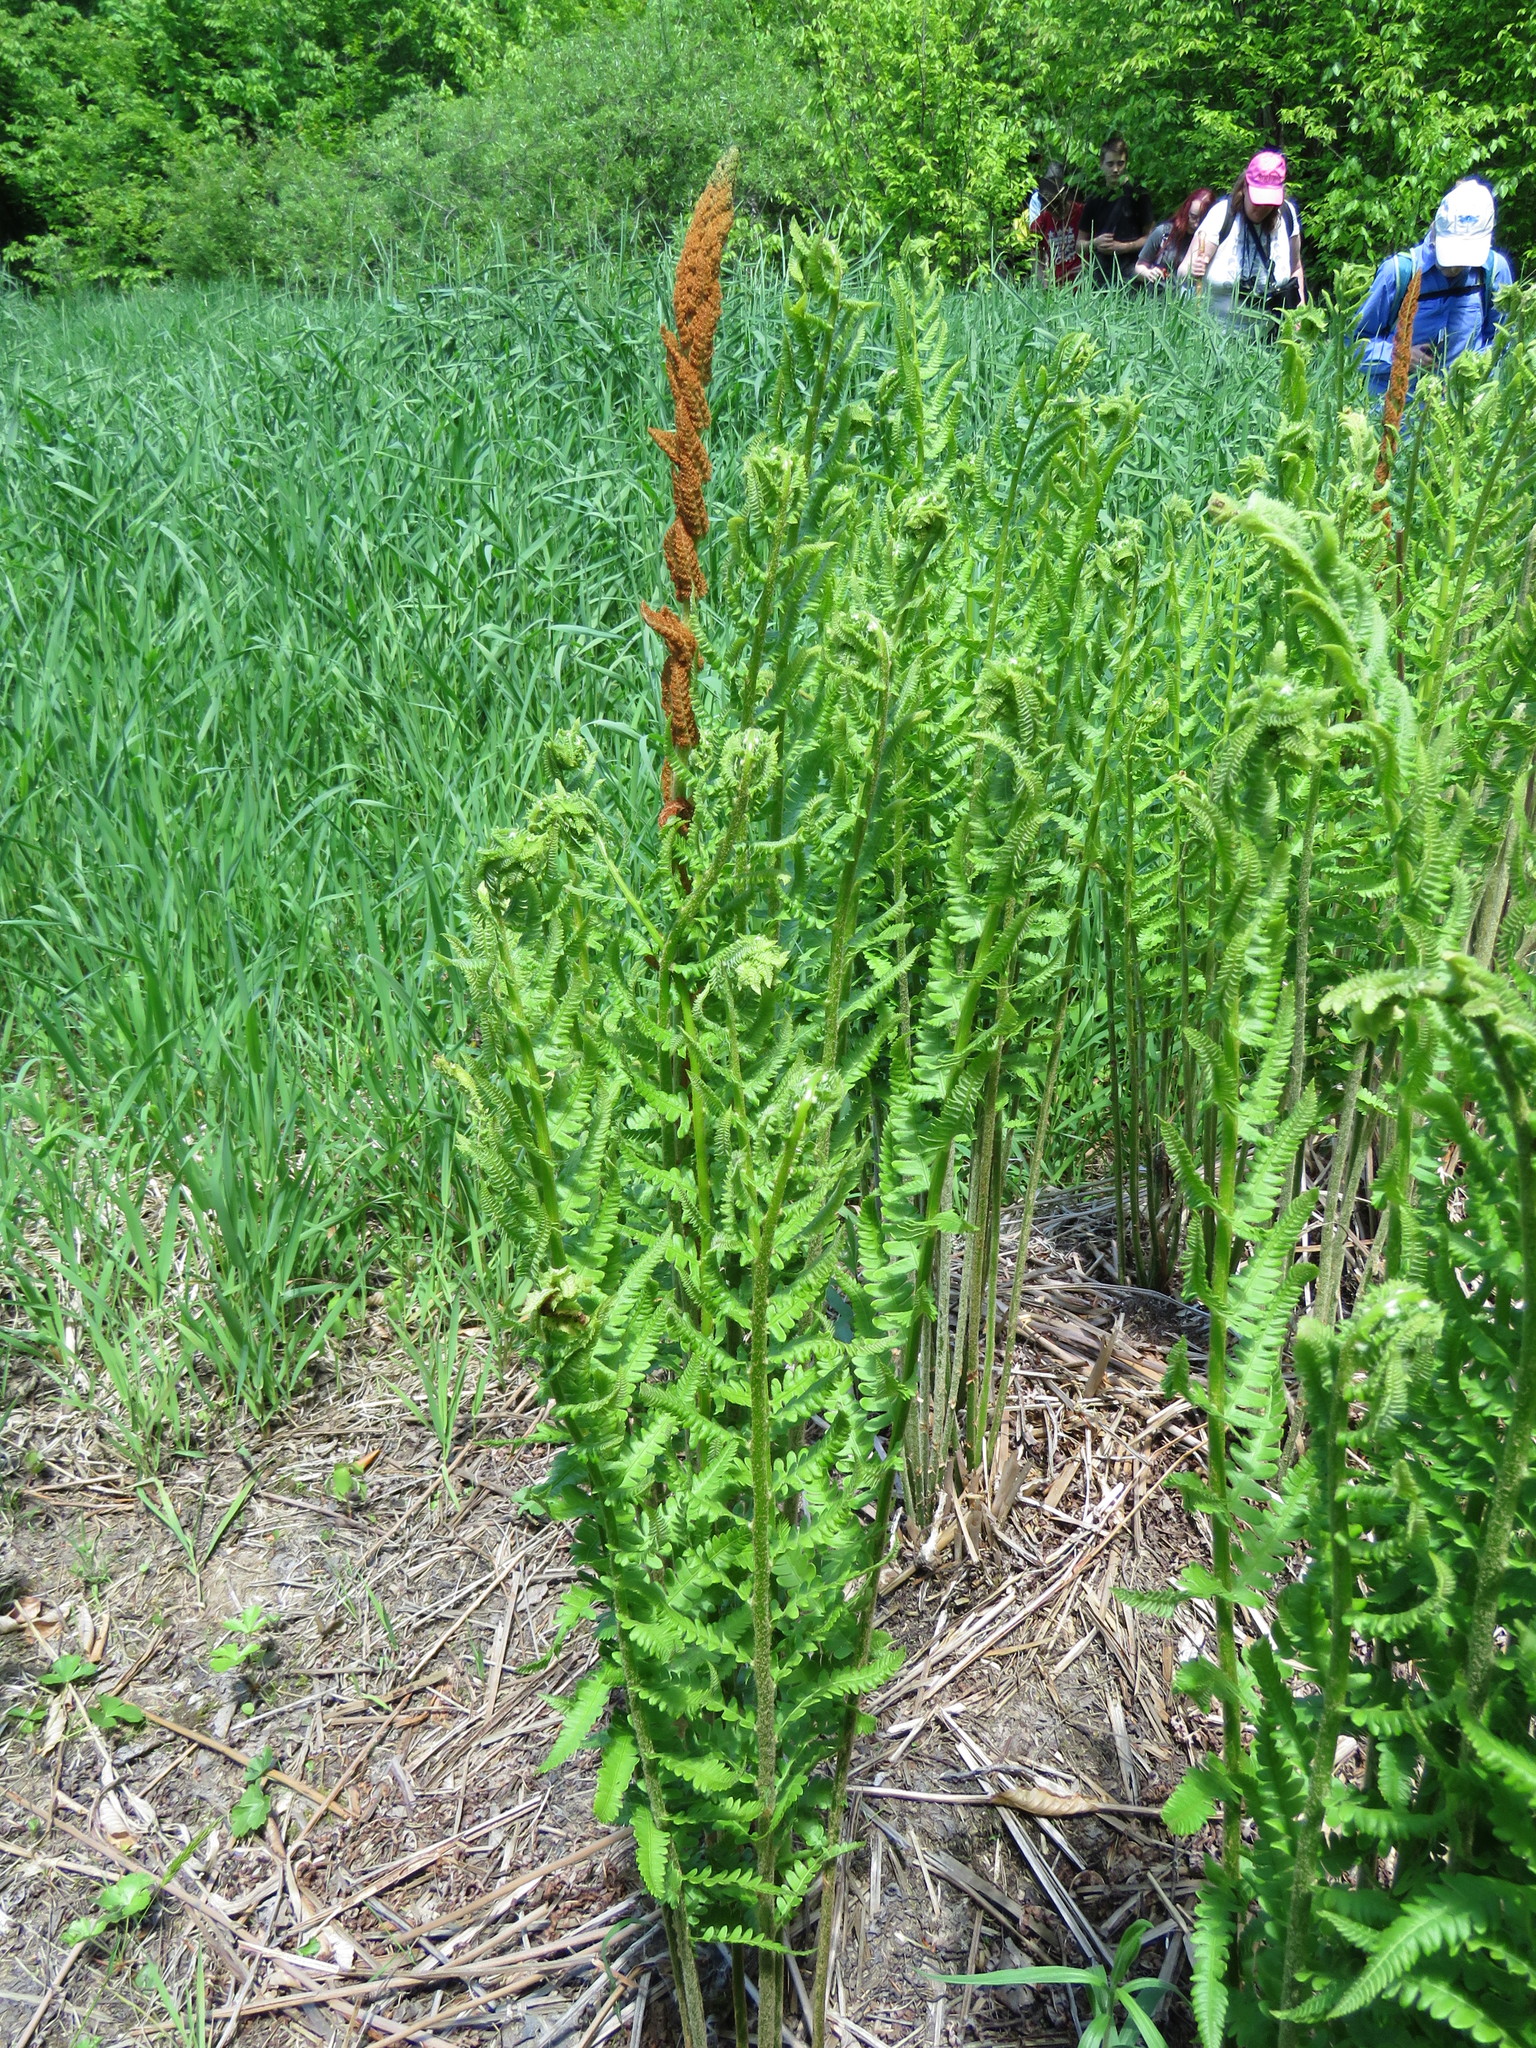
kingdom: Plantae
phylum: Tracheophyta
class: Polypodiopsida
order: Osmundales
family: Osmundaceae
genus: Osmundastrum
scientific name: Osmundastrum cinnamomeum
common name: Cinnamon fern
